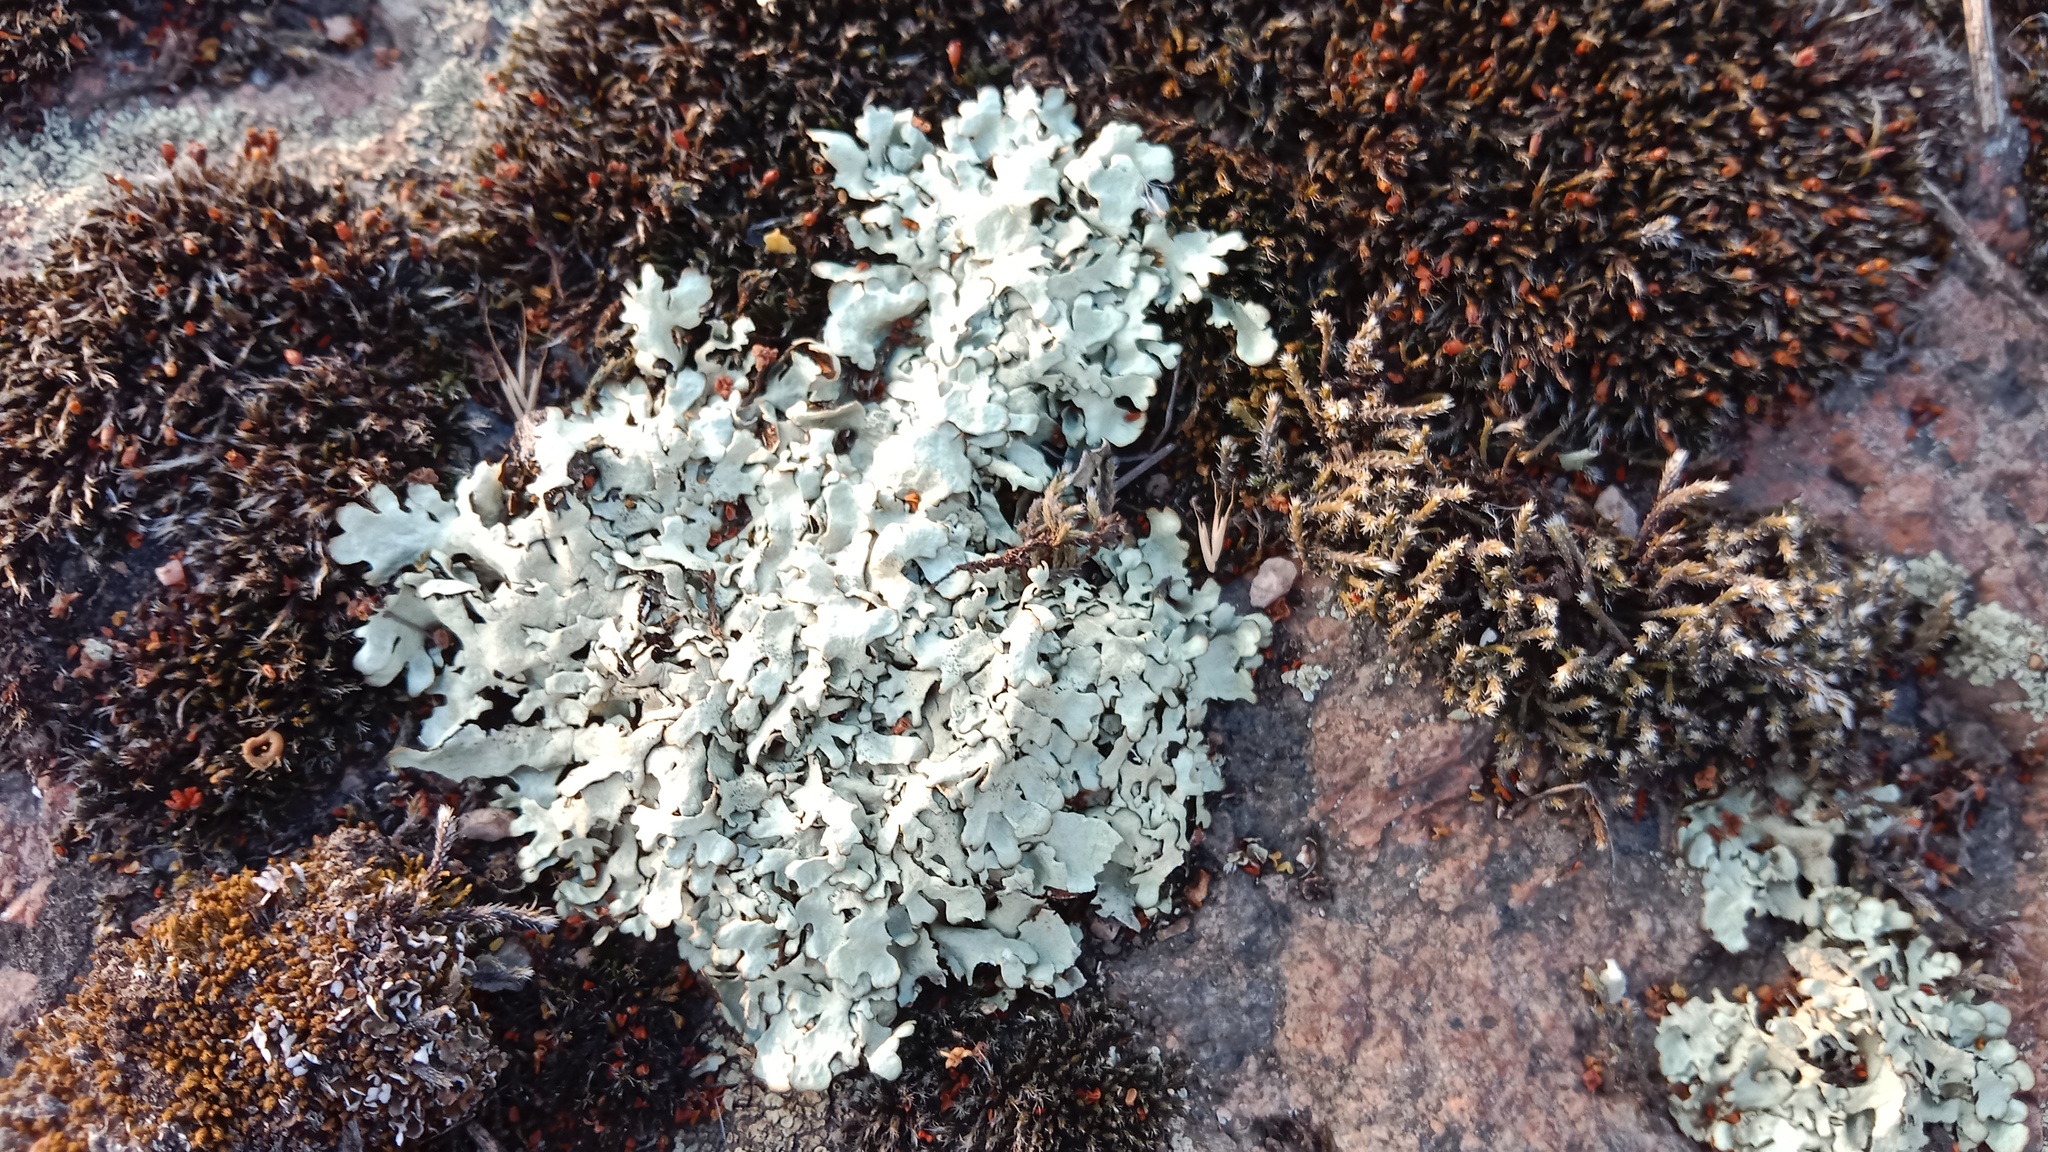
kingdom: Fungi
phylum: Ascomycota
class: Lecanoromycetes
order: Lecanorales
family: Parmeliaceae
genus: Xanthoparmelia
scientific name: Xanthoparmelia stenophylla
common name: Shingled rock shield
